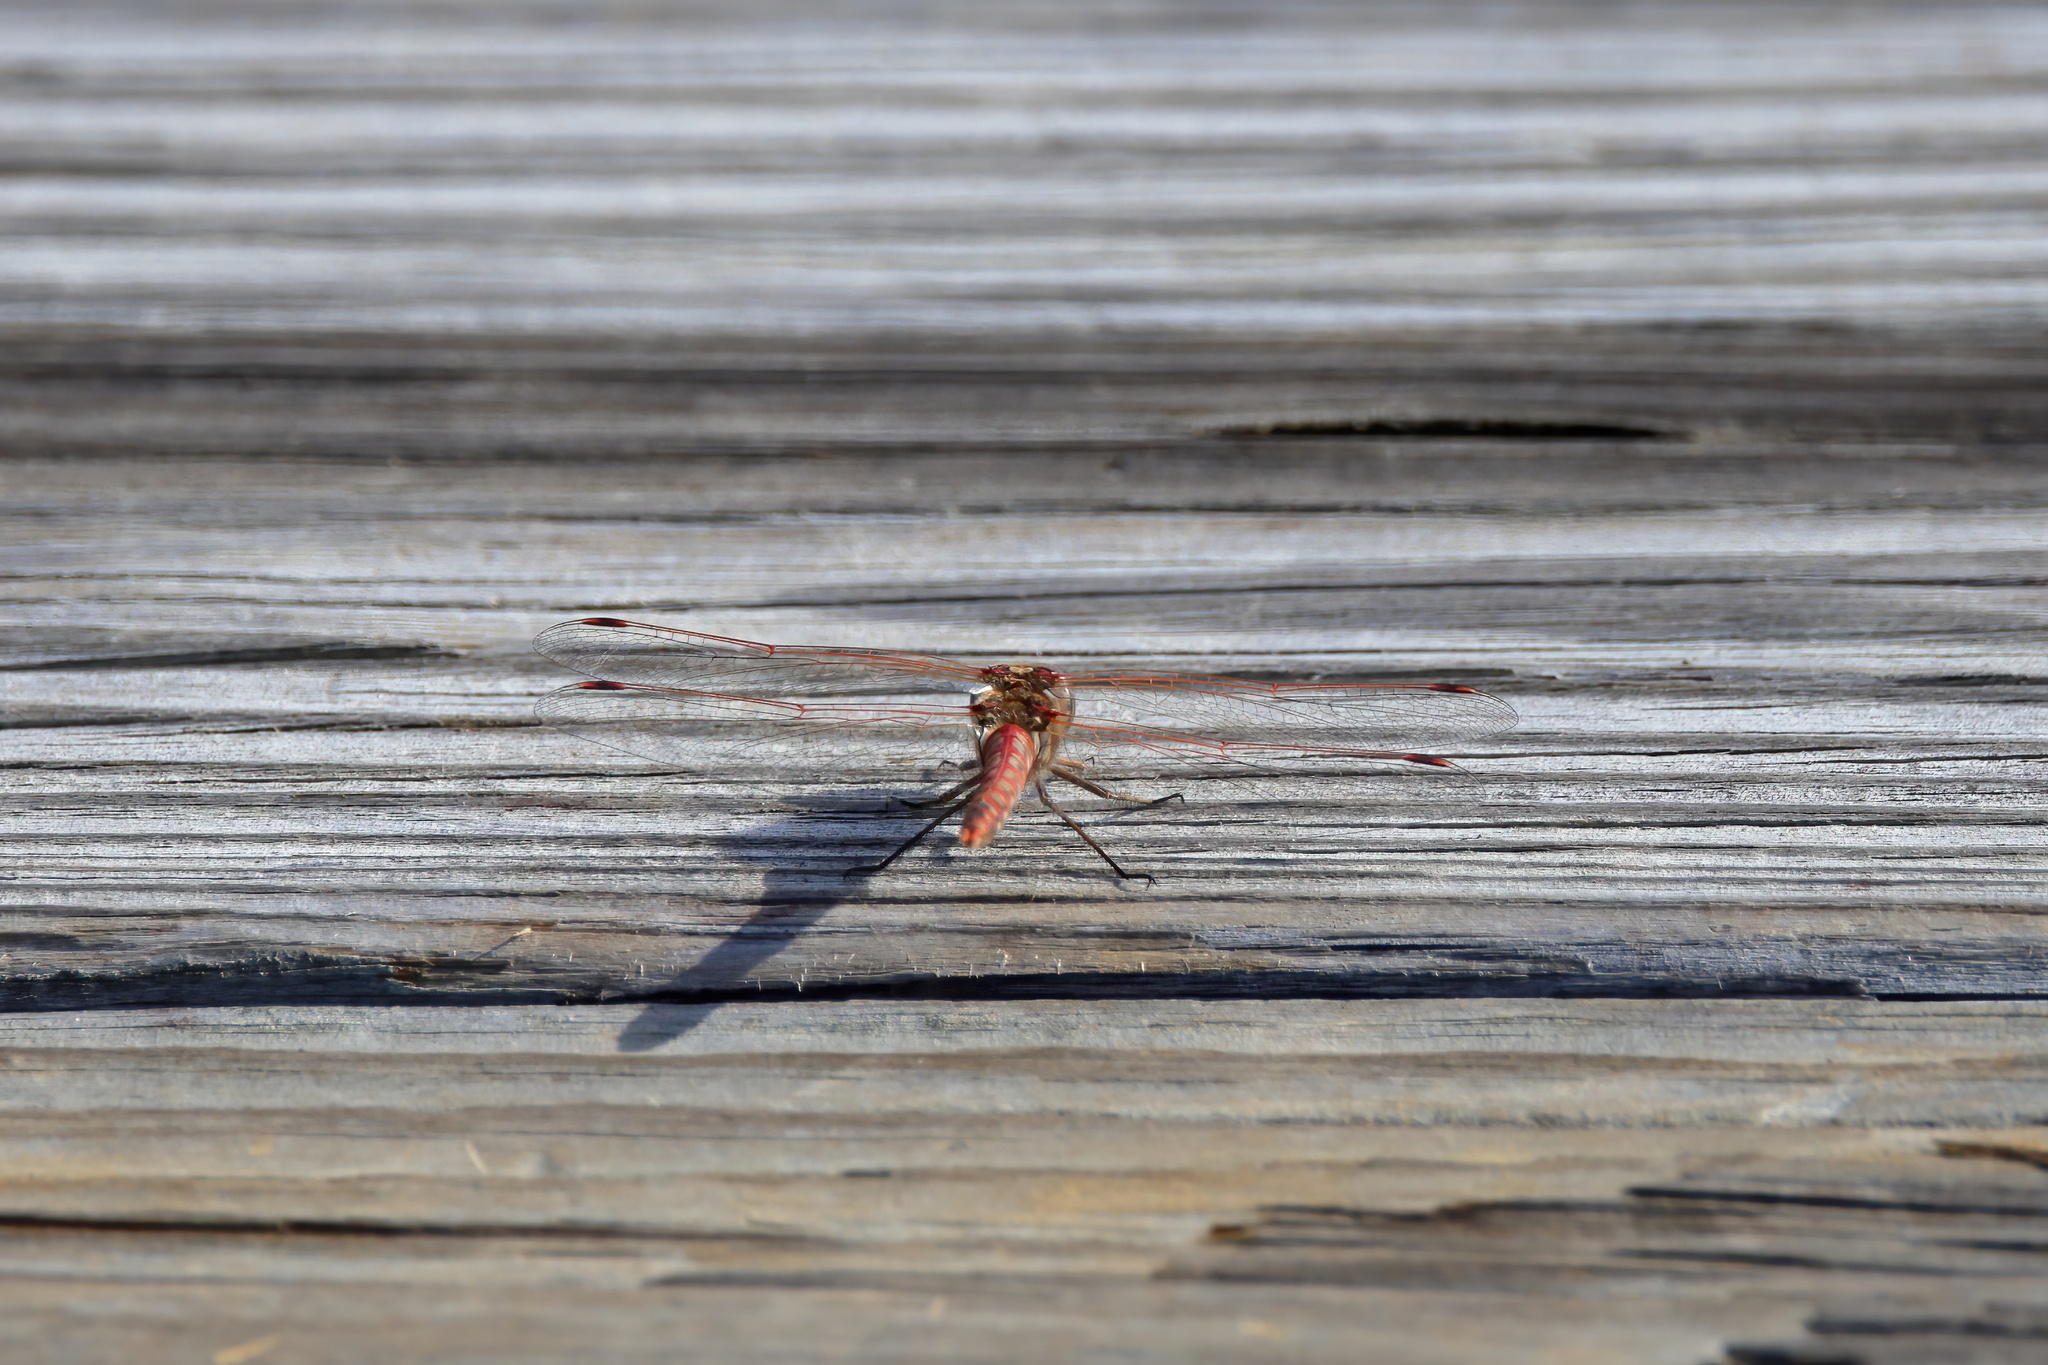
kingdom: Animalia
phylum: Arthropoda
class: Insecta
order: Odonata
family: Libellulidae
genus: Sympetrum
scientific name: Sympetrum corruptum
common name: Variegated meadowhawk
